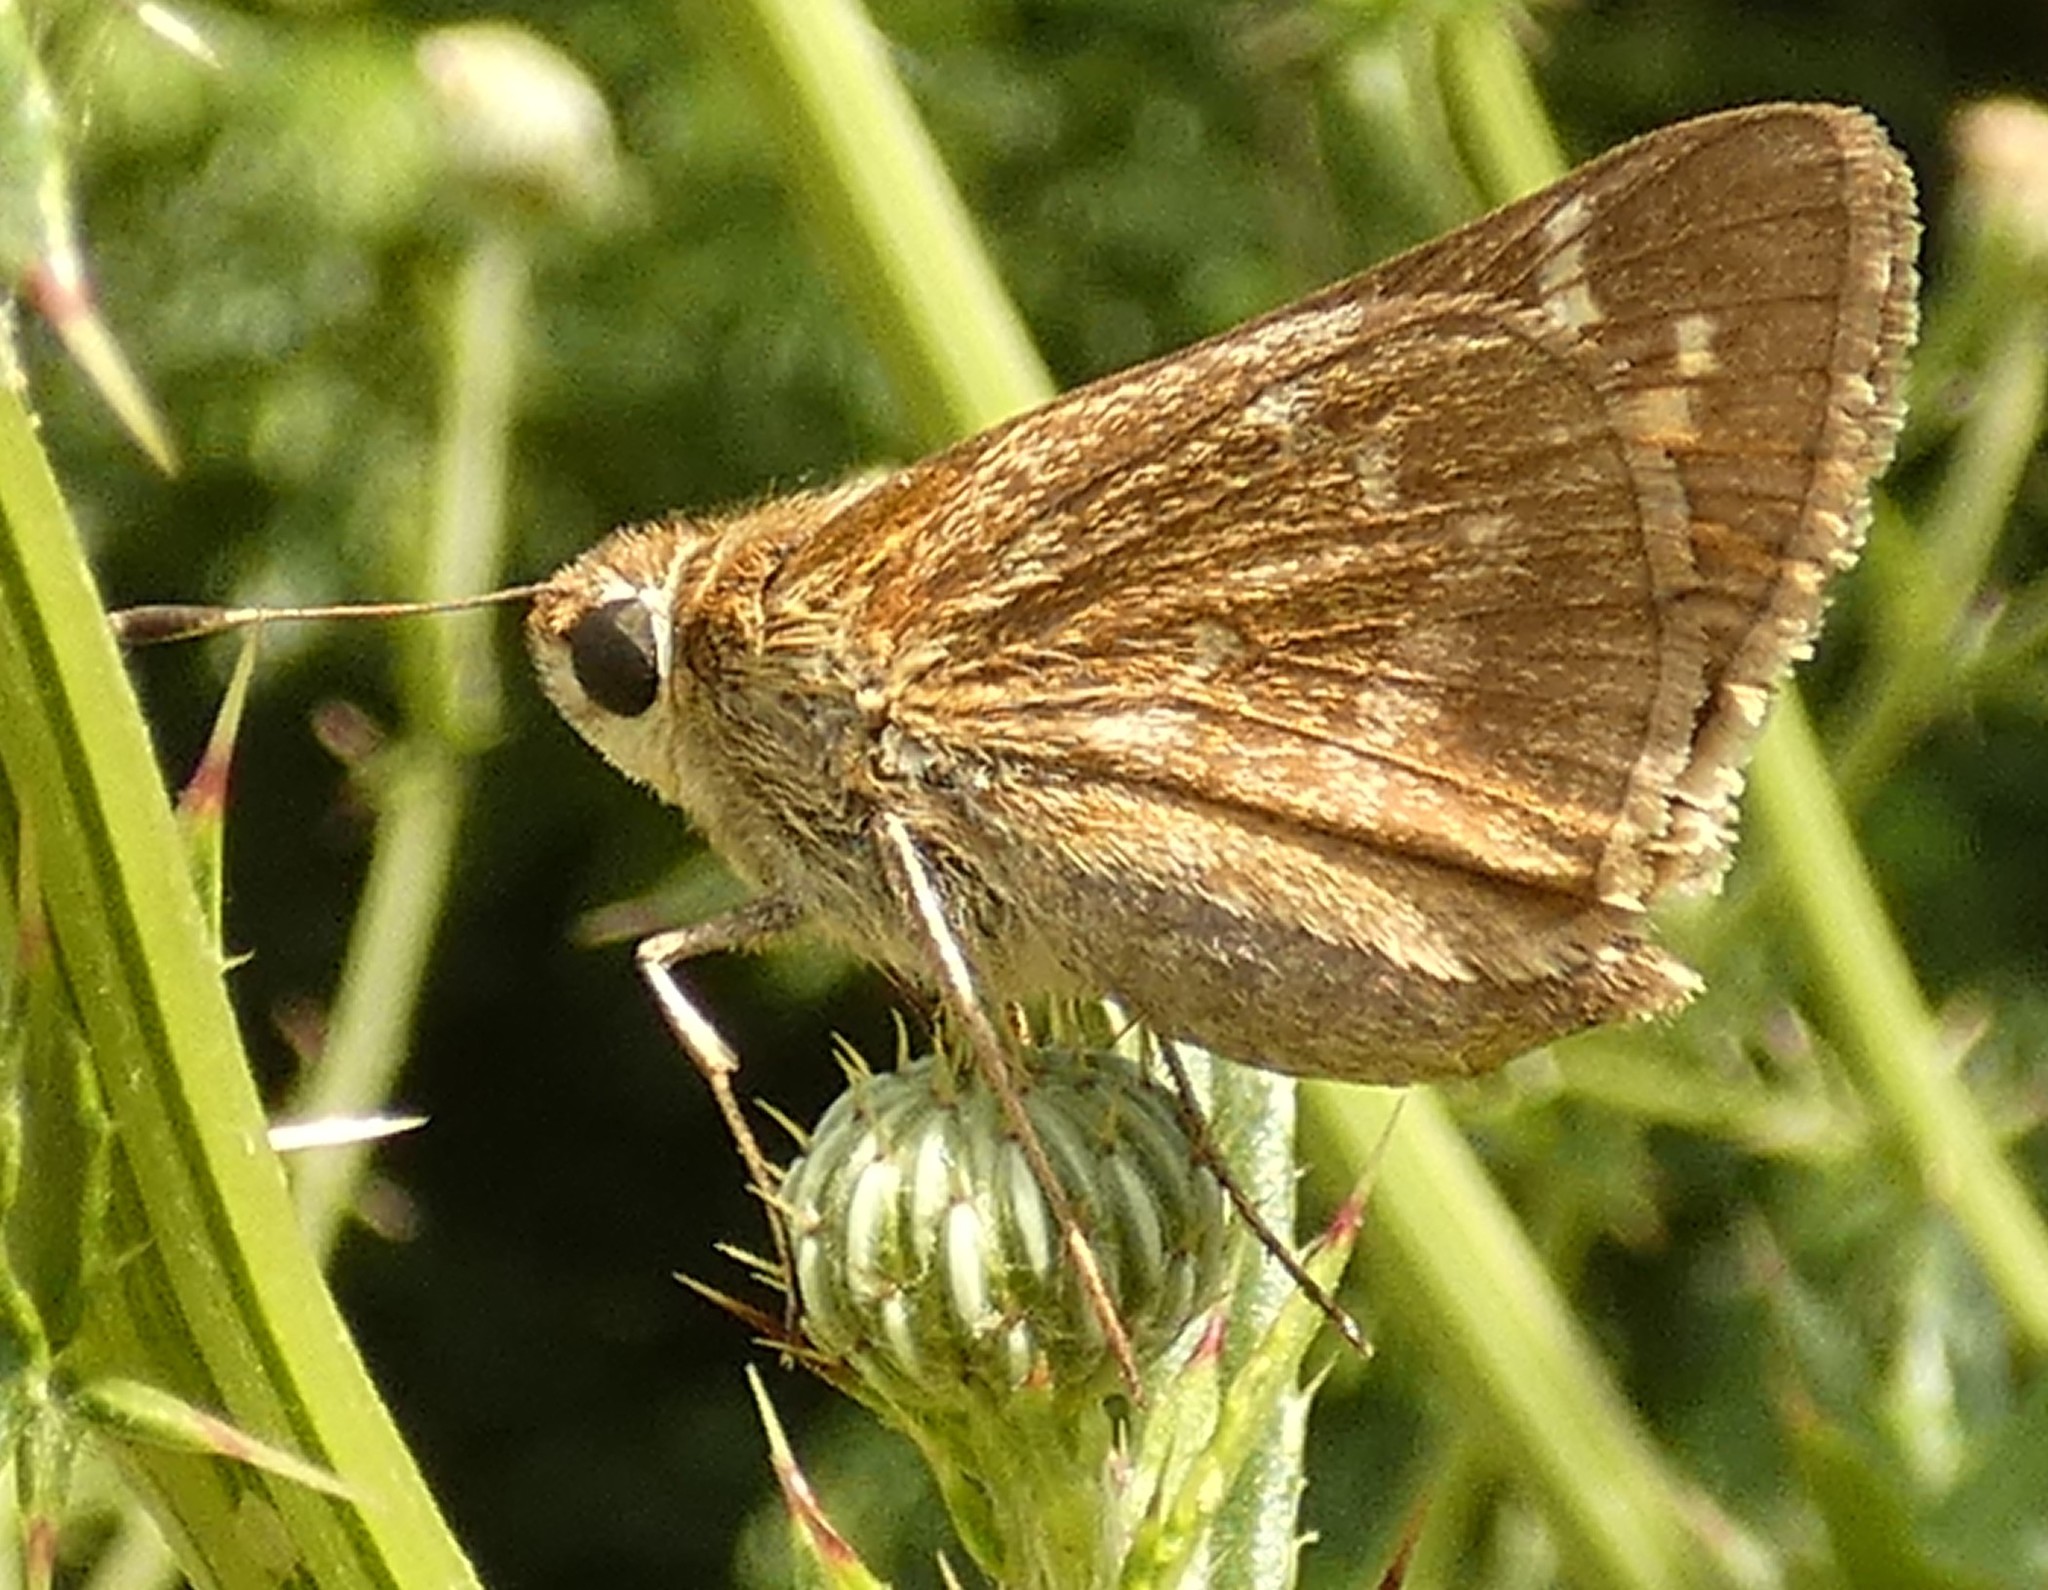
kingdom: Animalia
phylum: Arthropoda
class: Insecta
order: Lepidoptera
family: Hesperiidae
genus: Atalopedes
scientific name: Atalopedes
